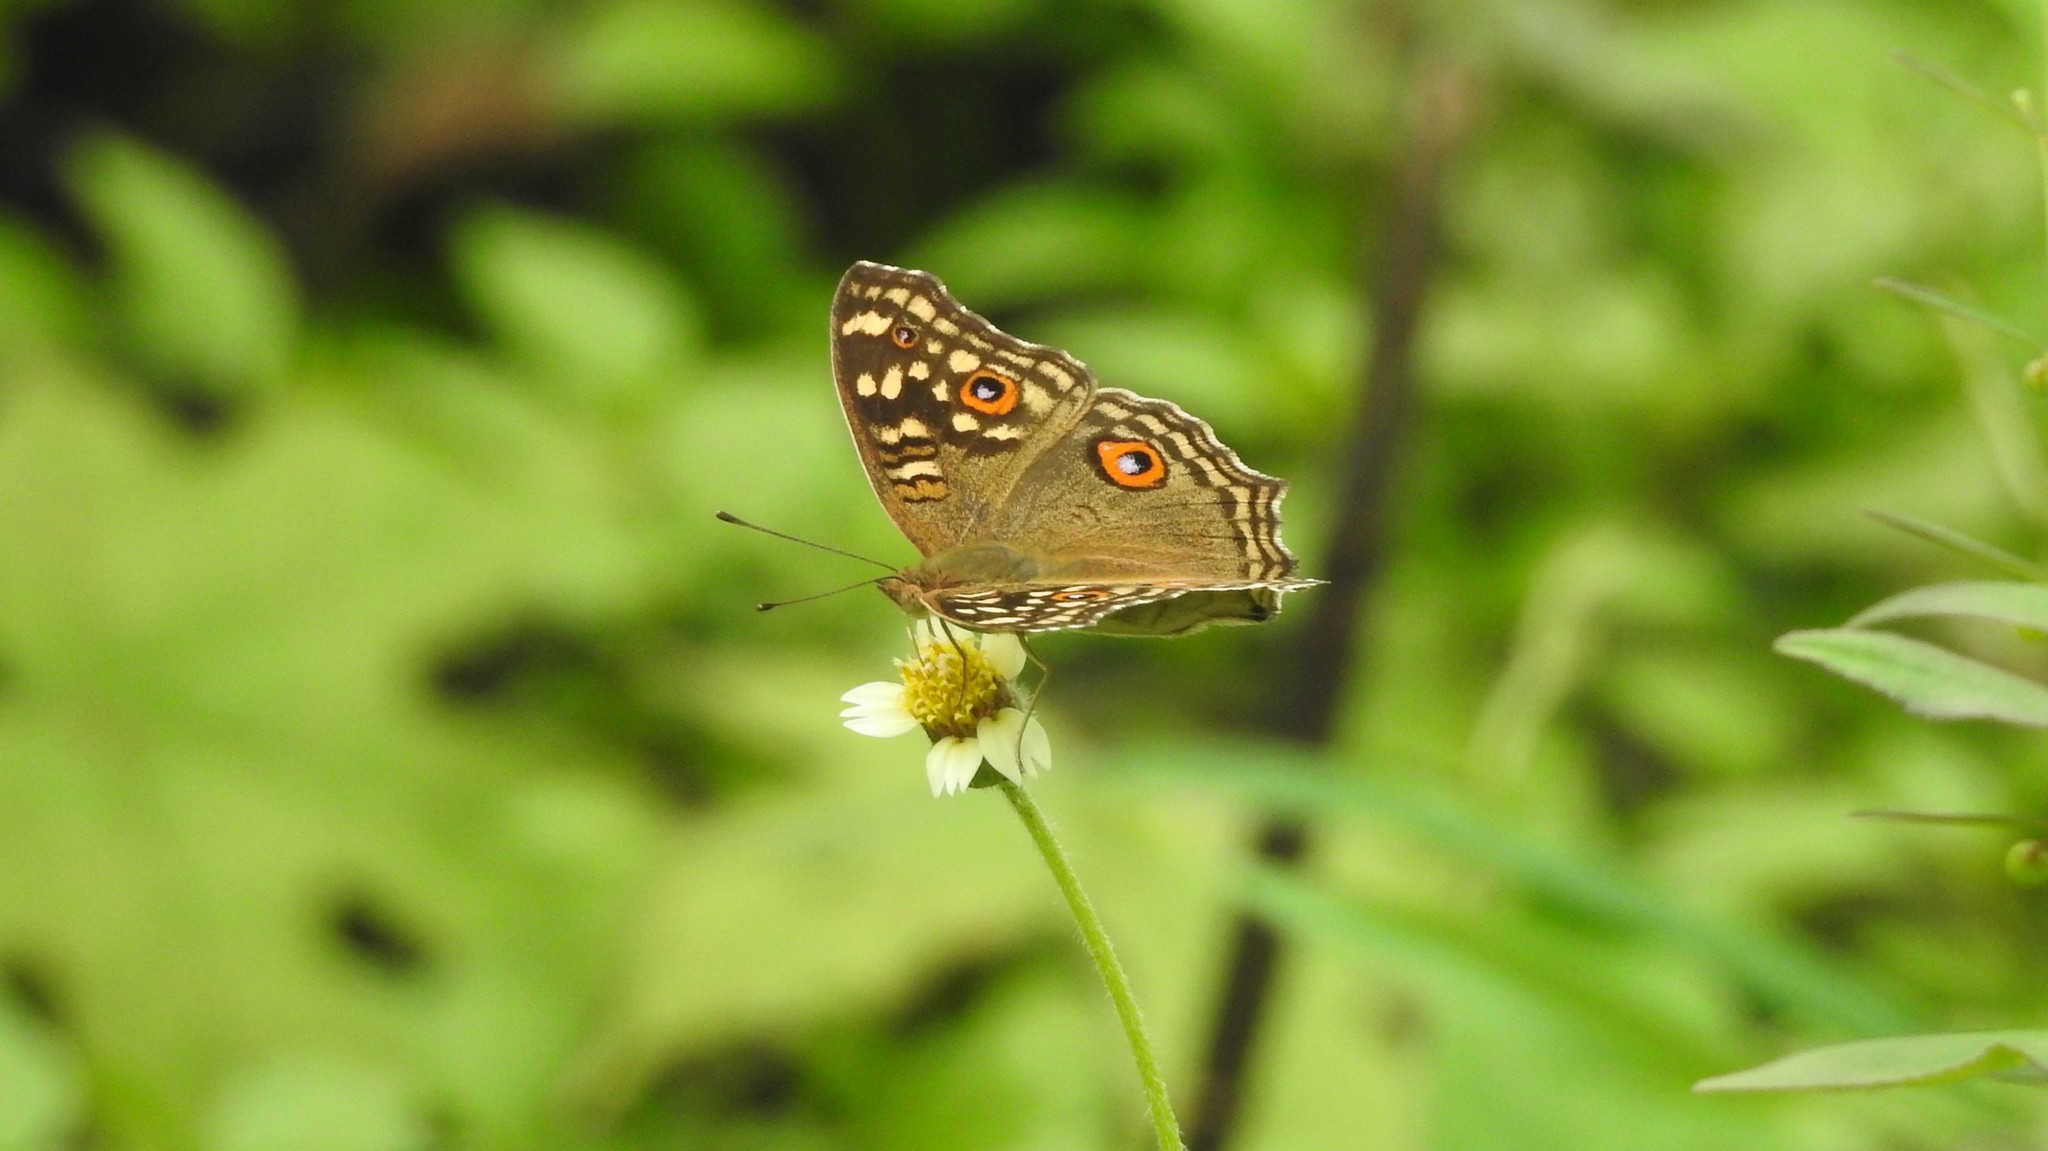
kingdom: Animalia
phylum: Arthropoda
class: Insecta
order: Lepidoptera
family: Nymphalidae
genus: Junonia
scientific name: Junonia lemonias
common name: Lemon pansy
